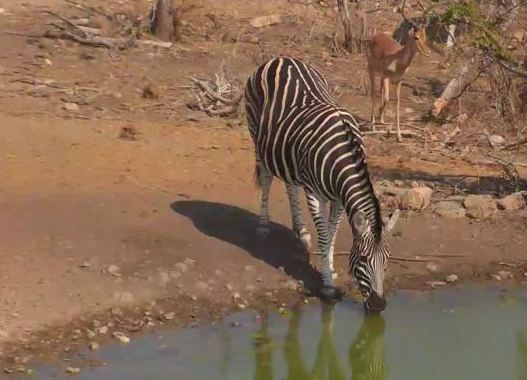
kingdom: Animalia
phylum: Chordata
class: Mammalia
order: Perissodactyla
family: Equidae
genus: Equus
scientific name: Equus quagga
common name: Plains zebra
